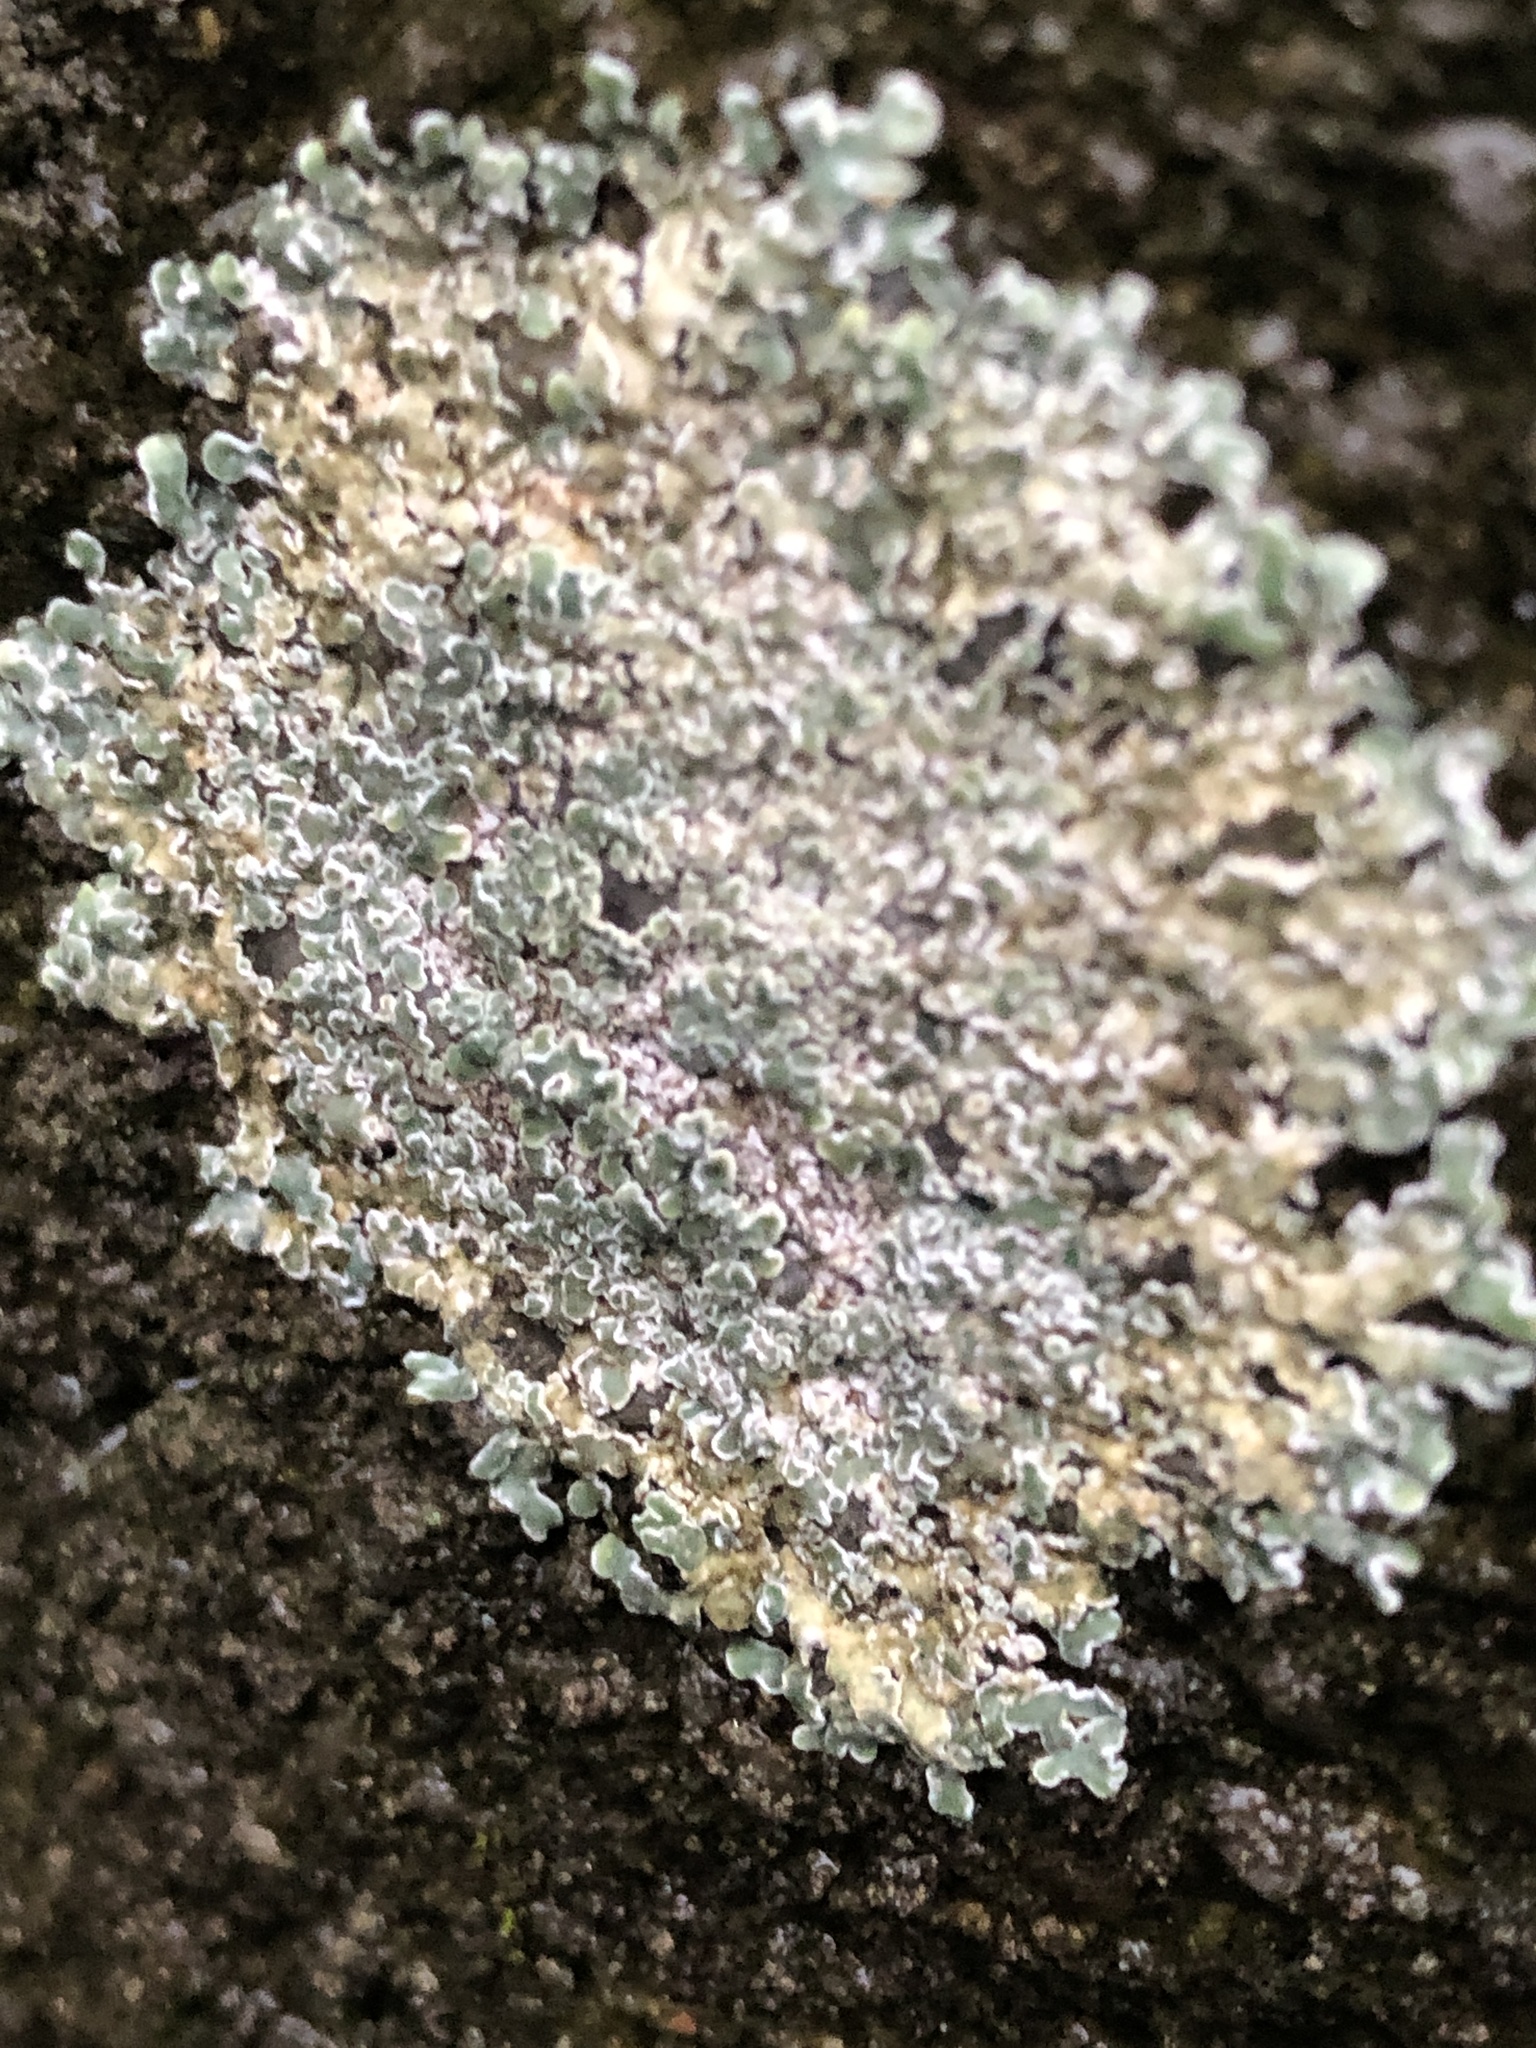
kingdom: Fungi
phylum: Ascomycota
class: Lecanoromycetes
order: Lecanorales
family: Lecanoraceae
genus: Protoparmeliopsis
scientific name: Protoparmeliopsis muralis
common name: Stonewall rim lichen
